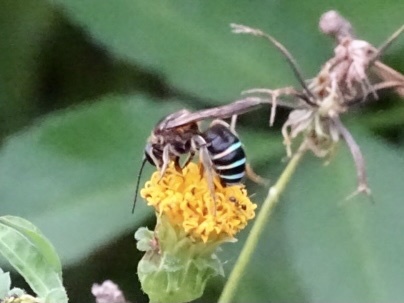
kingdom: Animalia
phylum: Arthropoda
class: Insecta
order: Hymenoptera
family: Halictidae
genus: Nomia
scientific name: Nomia iridescens
